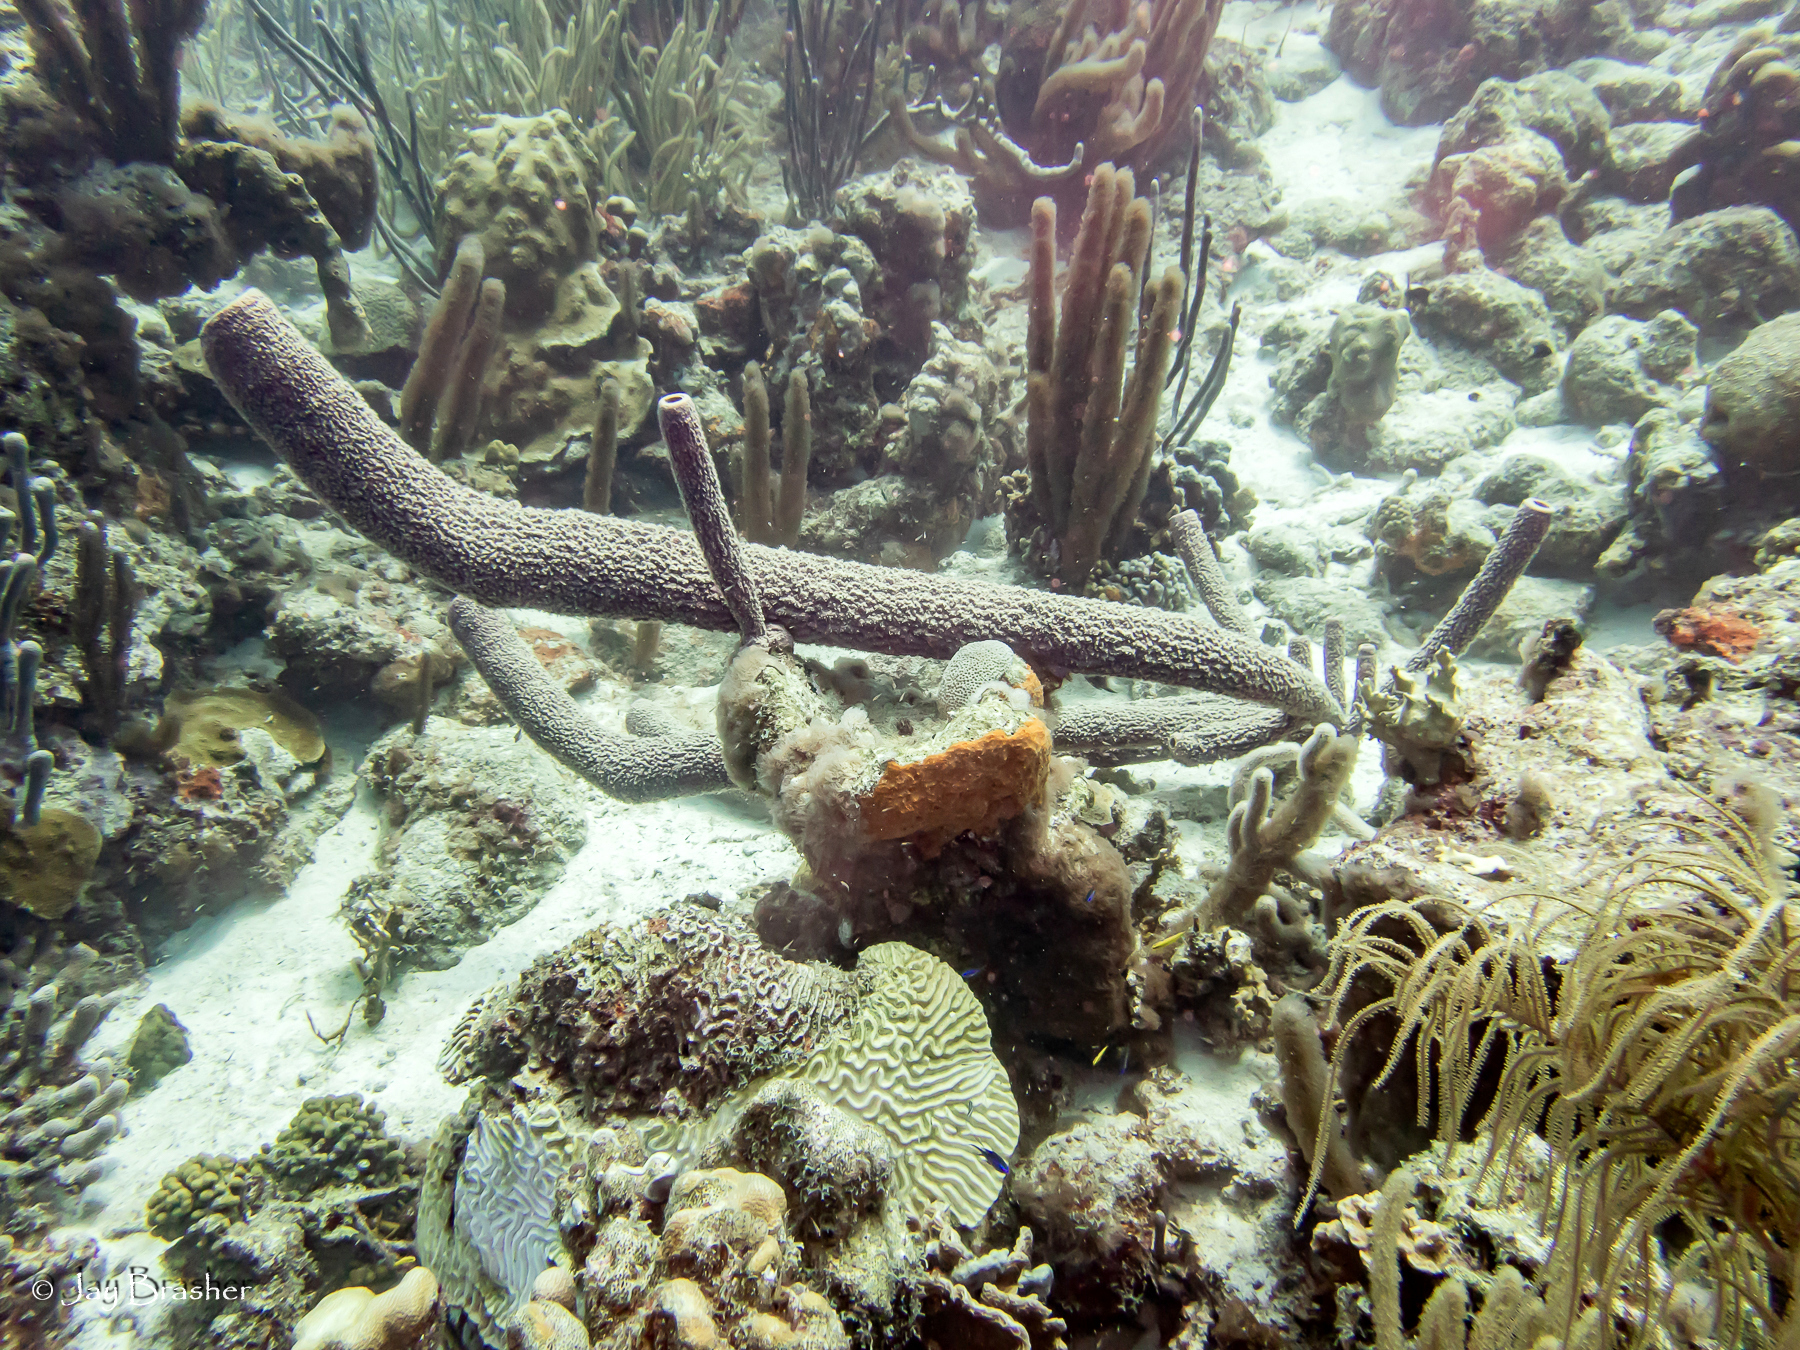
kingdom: Animalia
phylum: Porifera
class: Demospongiae
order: Verongiida
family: Aplysinidae
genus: Aplysina
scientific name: Aplysina archeri
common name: Stove-pipe sponge
